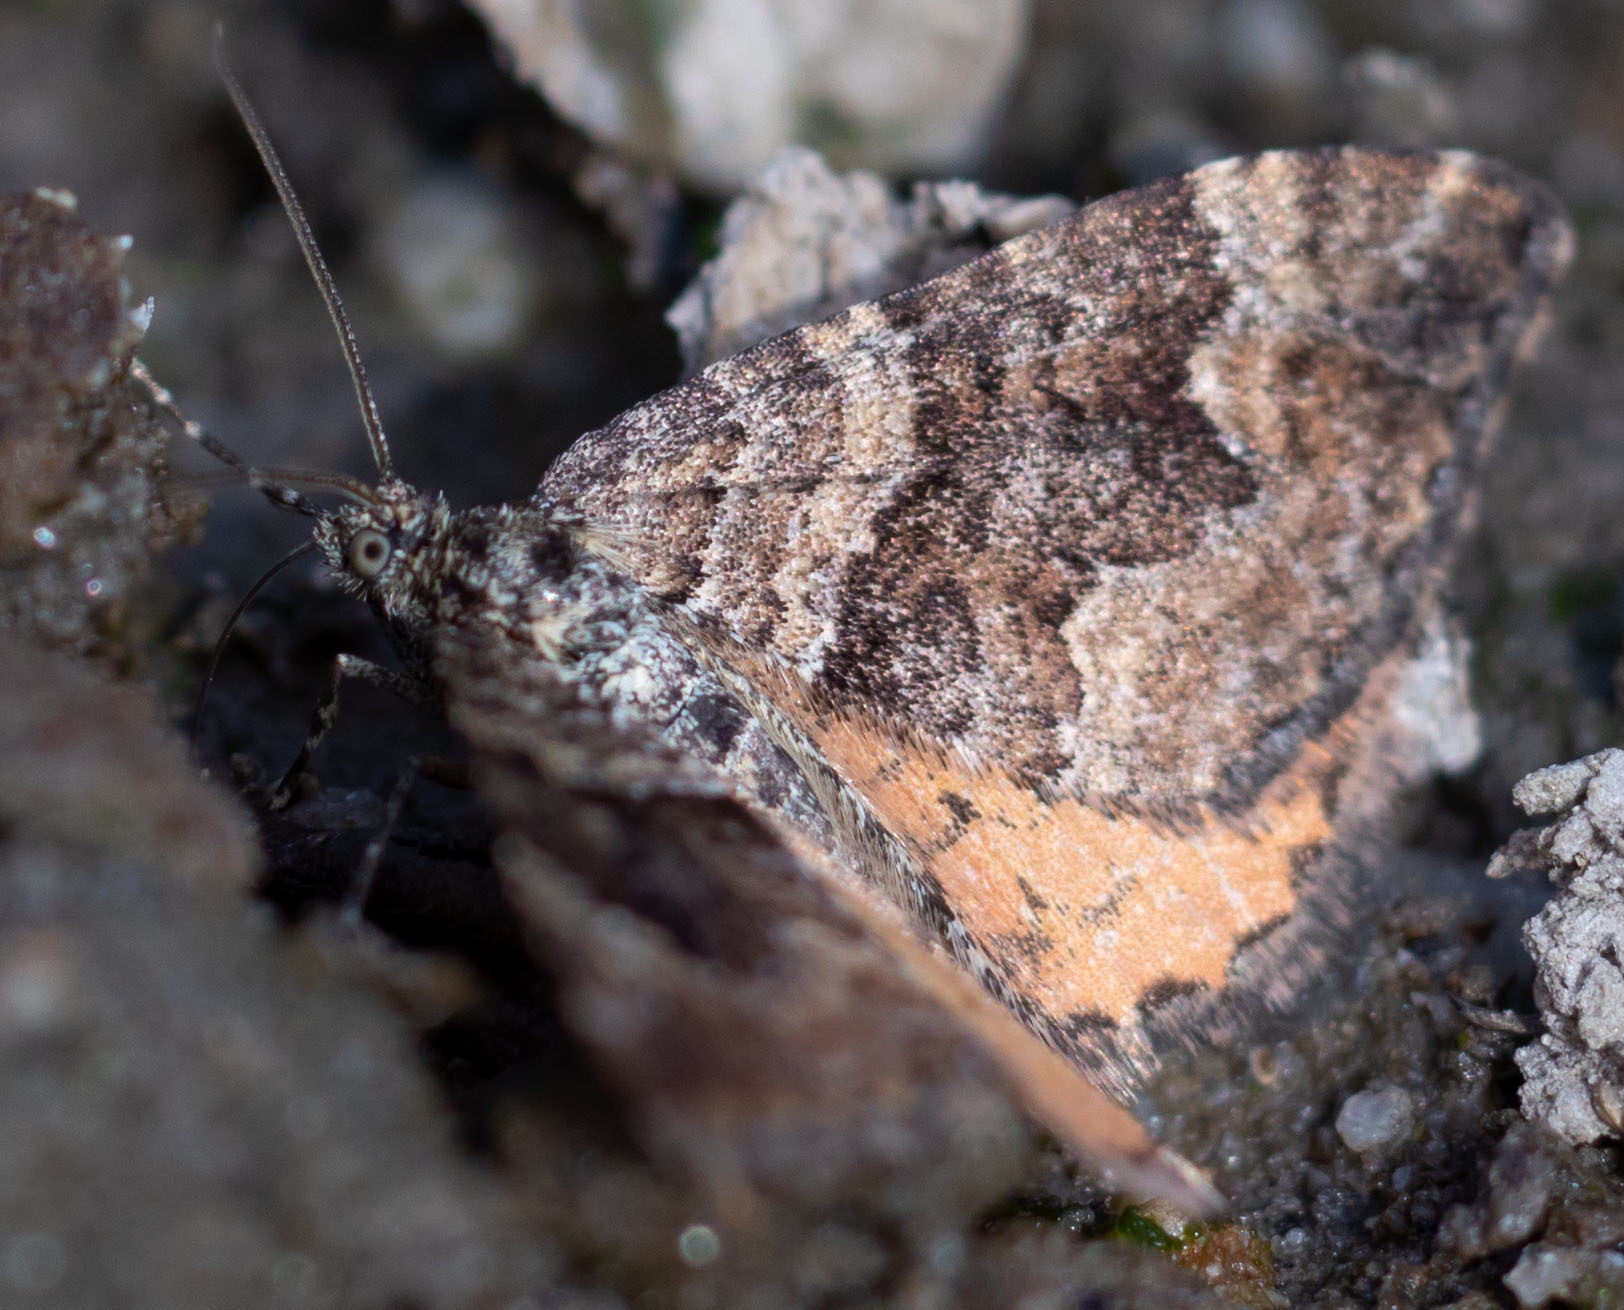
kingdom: Animalia
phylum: Arthropoda
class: Insecta
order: Lepidoptera
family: Geometridae
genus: Epirrhoe
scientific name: Epirrhoe plebeculata
